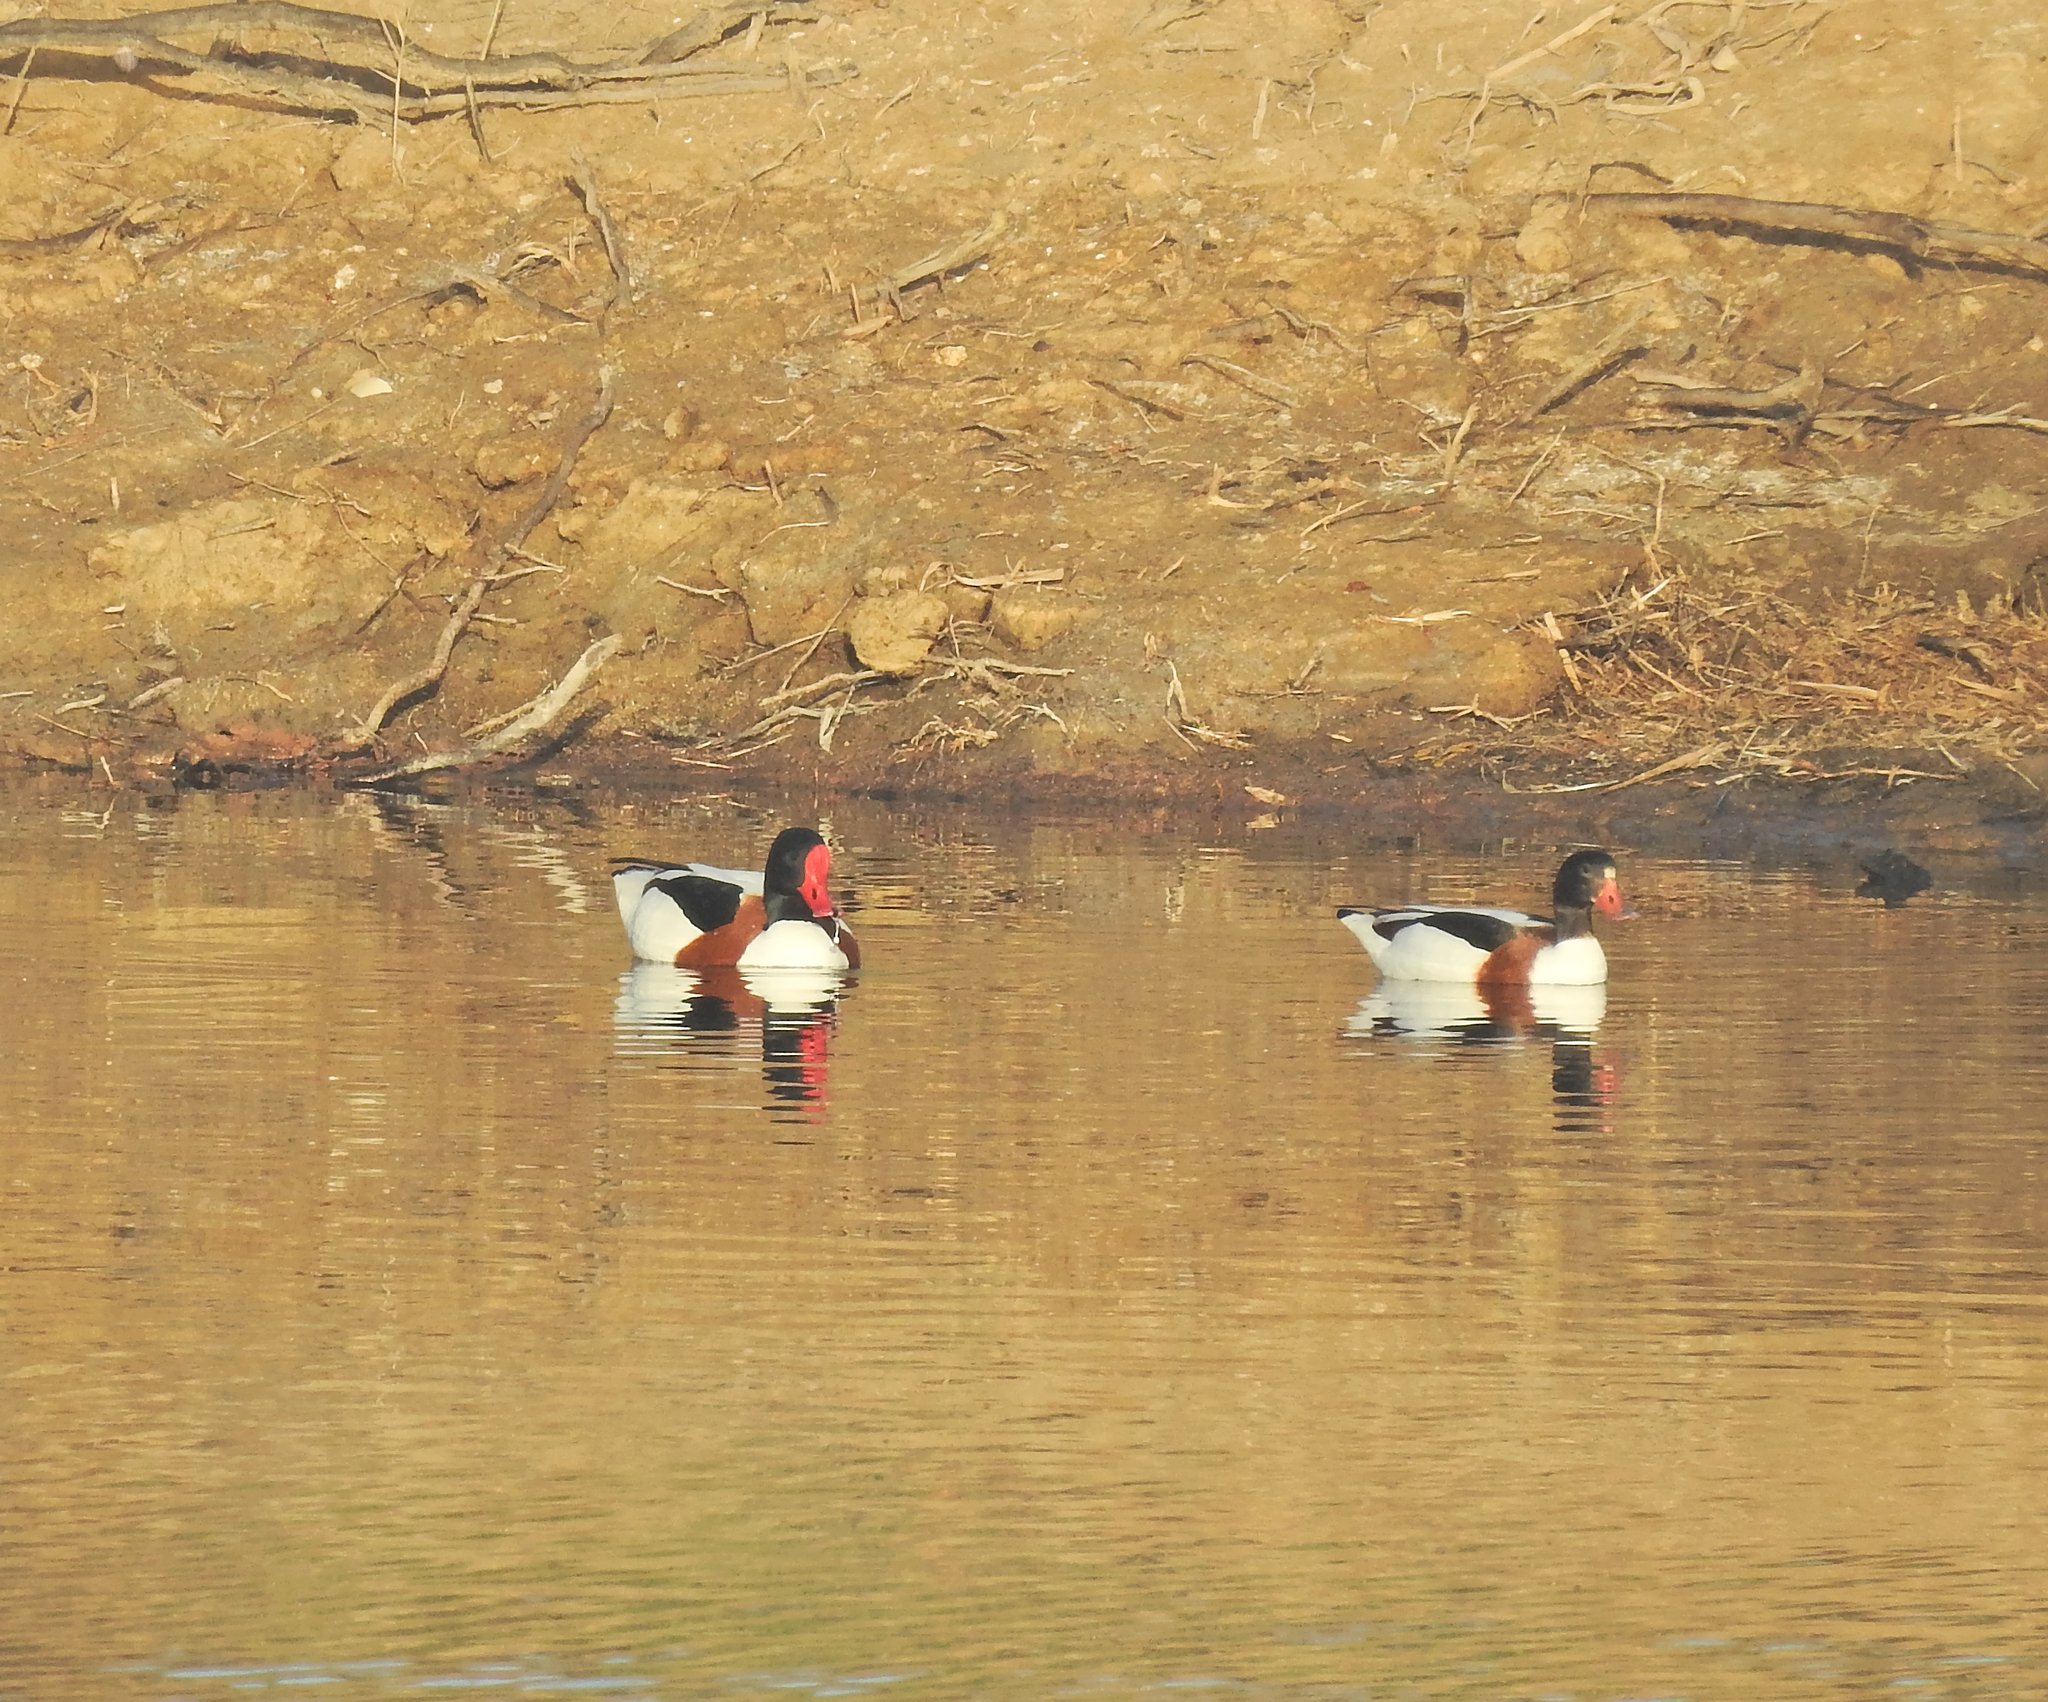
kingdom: Animalia
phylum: Chordata
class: Aves
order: Anseriformes
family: Anatidae
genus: Tadorna
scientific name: Tadorna tadorna
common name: Common shelduck
